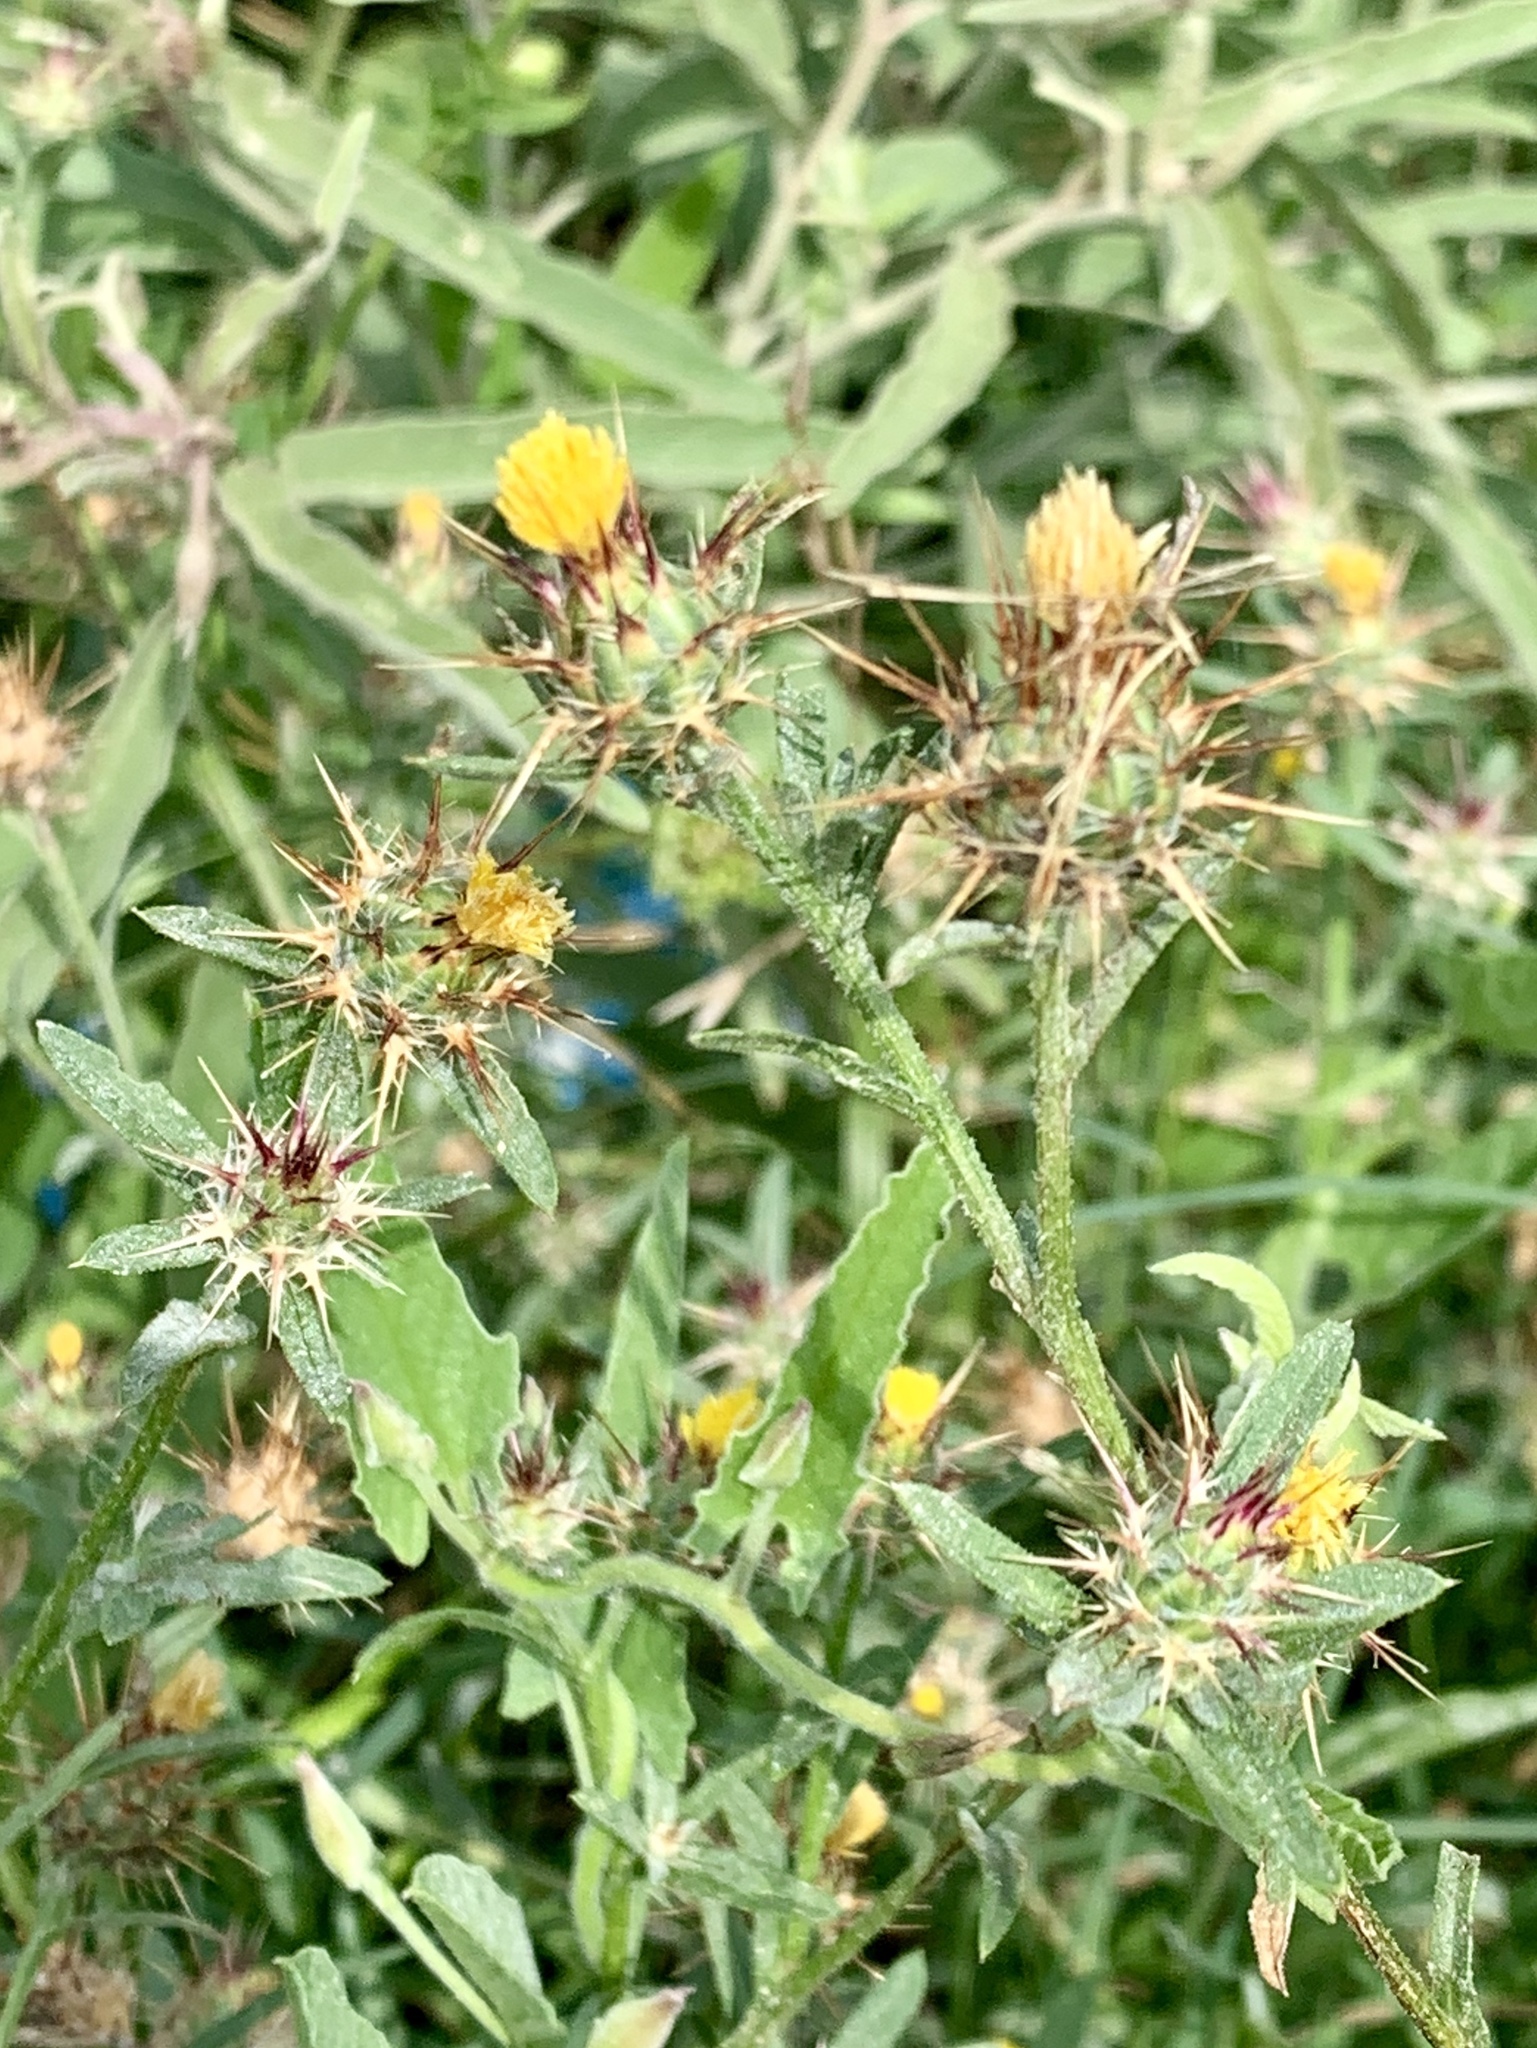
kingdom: Plantae
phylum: Tracheophyta
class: Magnoliopsida
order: Asterales
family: Asteraceae
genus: Centaurea
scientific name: Centaurea melitensis
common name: Maltese star-thistle
